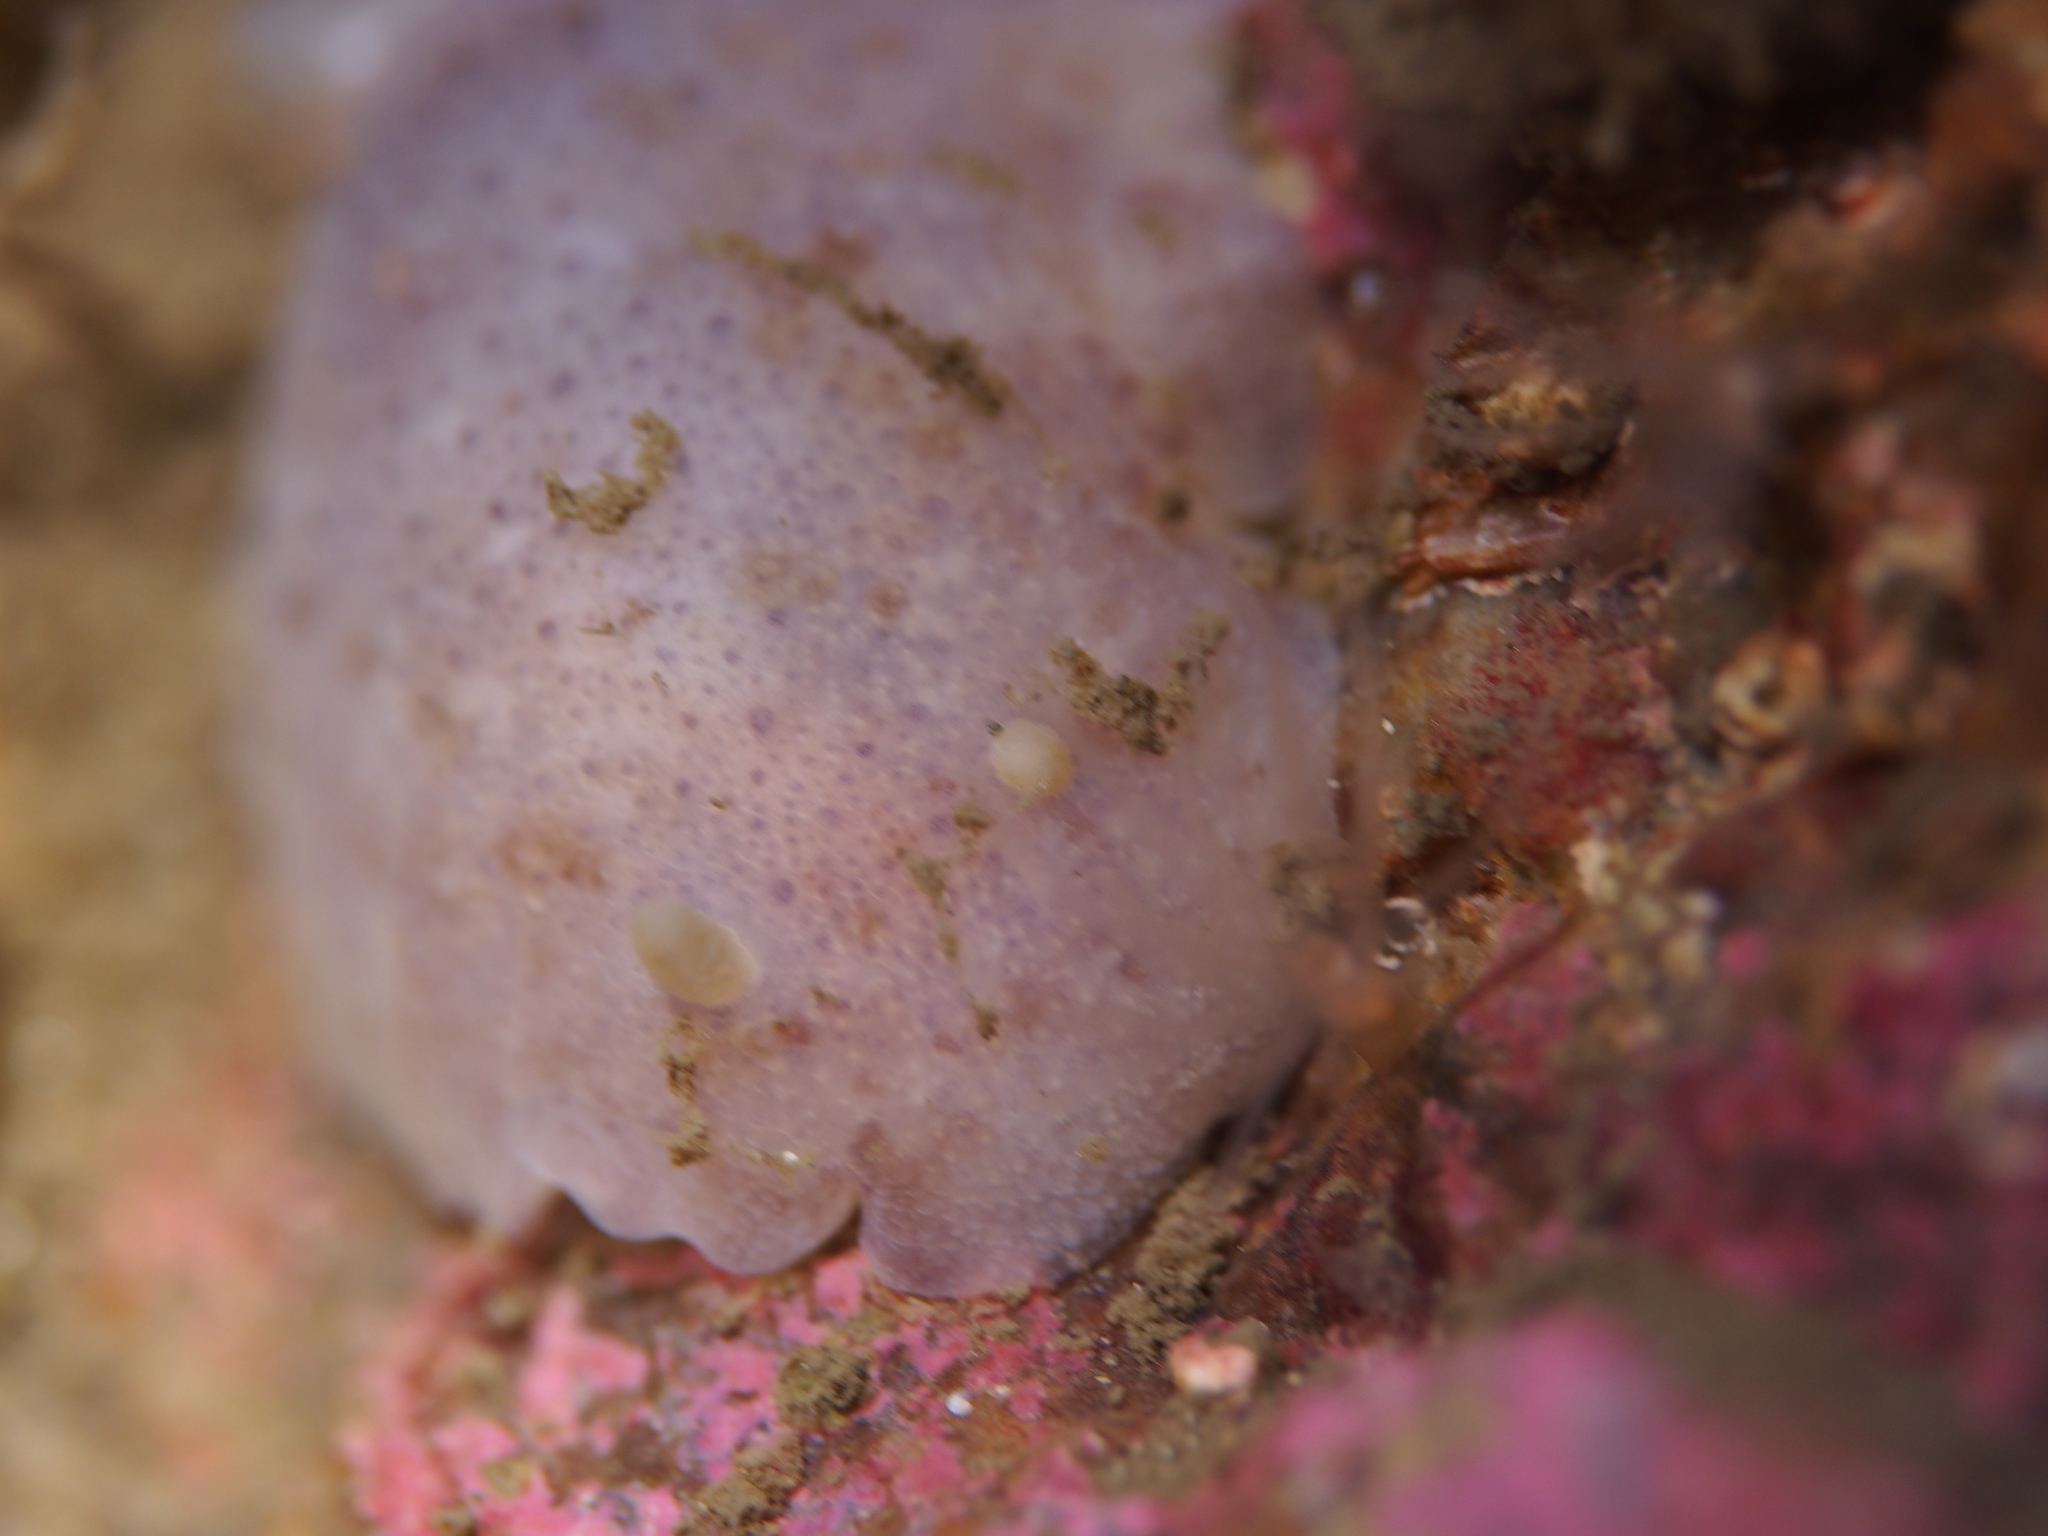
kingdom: Animalia
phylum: Mollusca
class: Gastropoda
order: Nudibranchia
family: Dorididae
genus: Doris
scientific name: Doris pseudoargus
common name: Sea lemon
